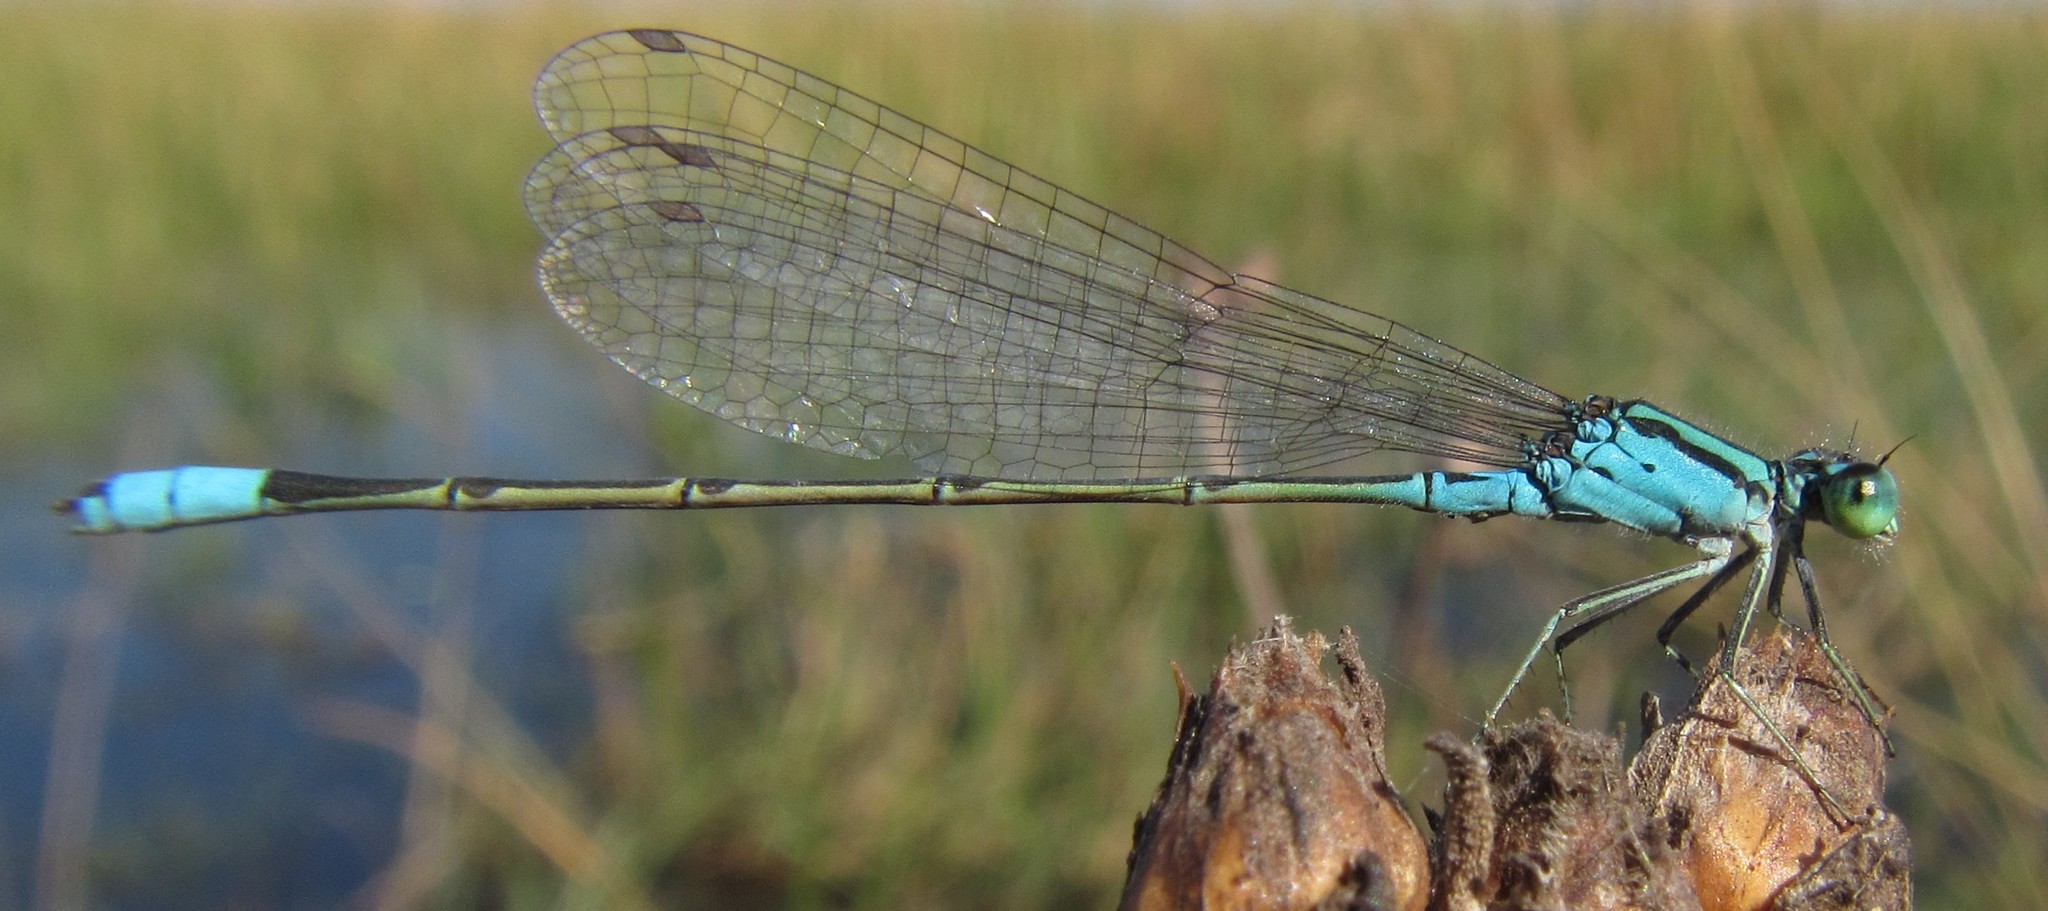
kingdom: Animalia
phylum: Arthropoda
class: Insecta
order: Odonata
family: Coenagrionidae
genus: Pseudagrion
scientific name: Pseudagrion coeleste
